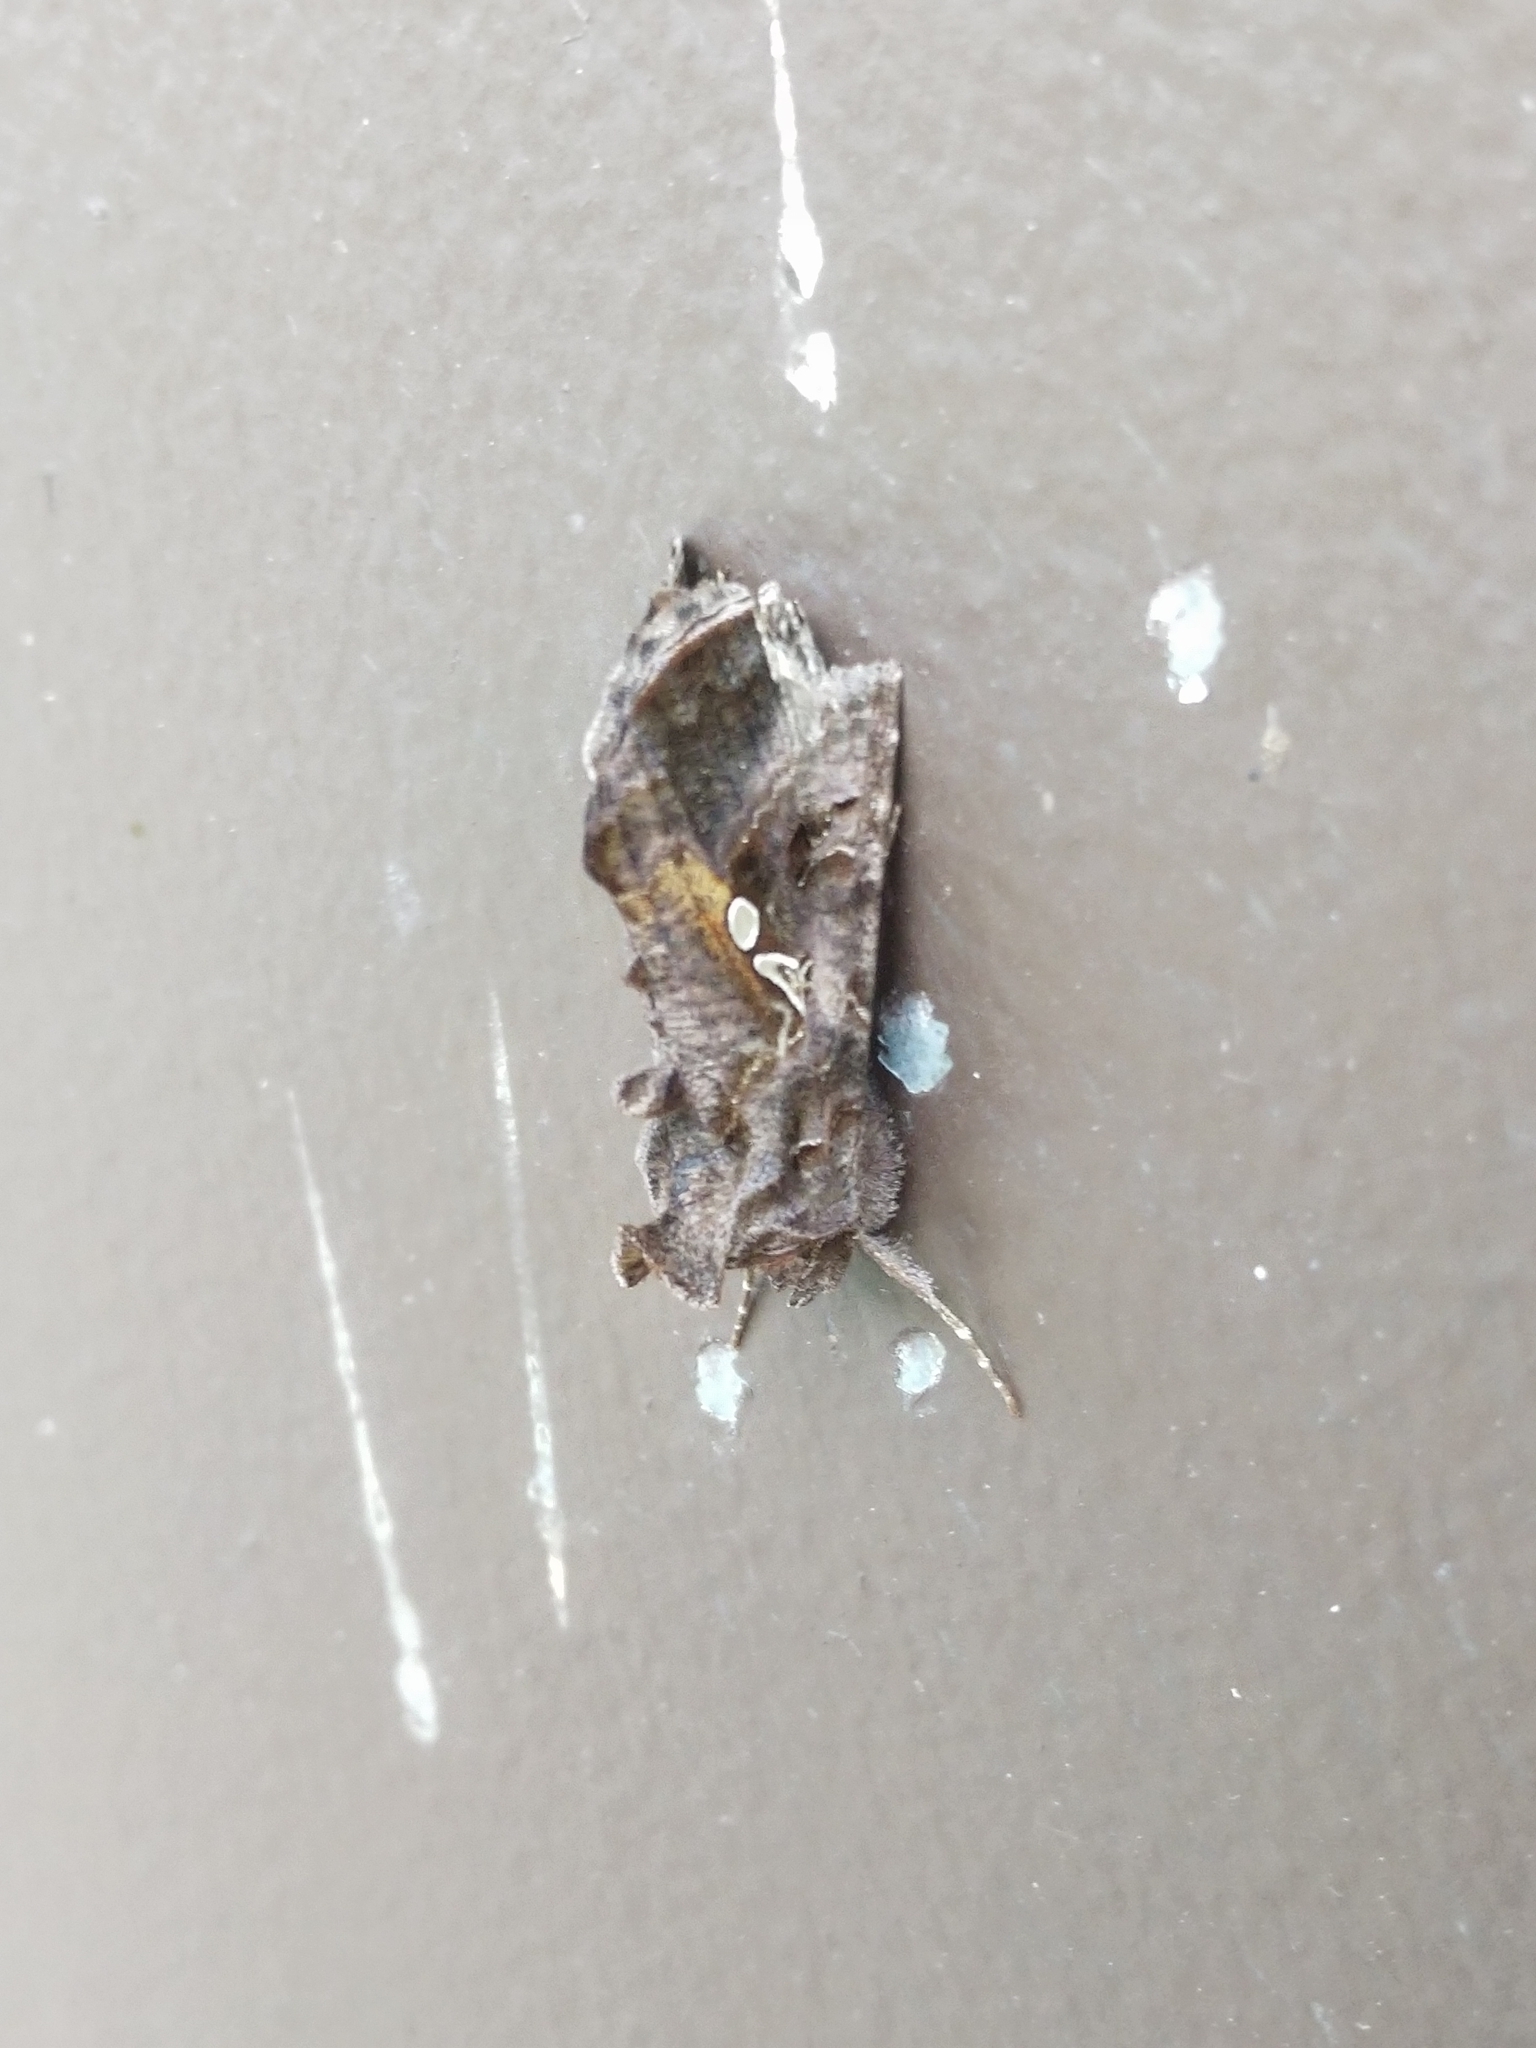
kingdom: Animalia
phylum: Arthropoda
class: Insecta
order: Lepidoptera
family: Noctuidae
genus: Autographa
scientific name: Autographa precationis
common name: Common looper moth
